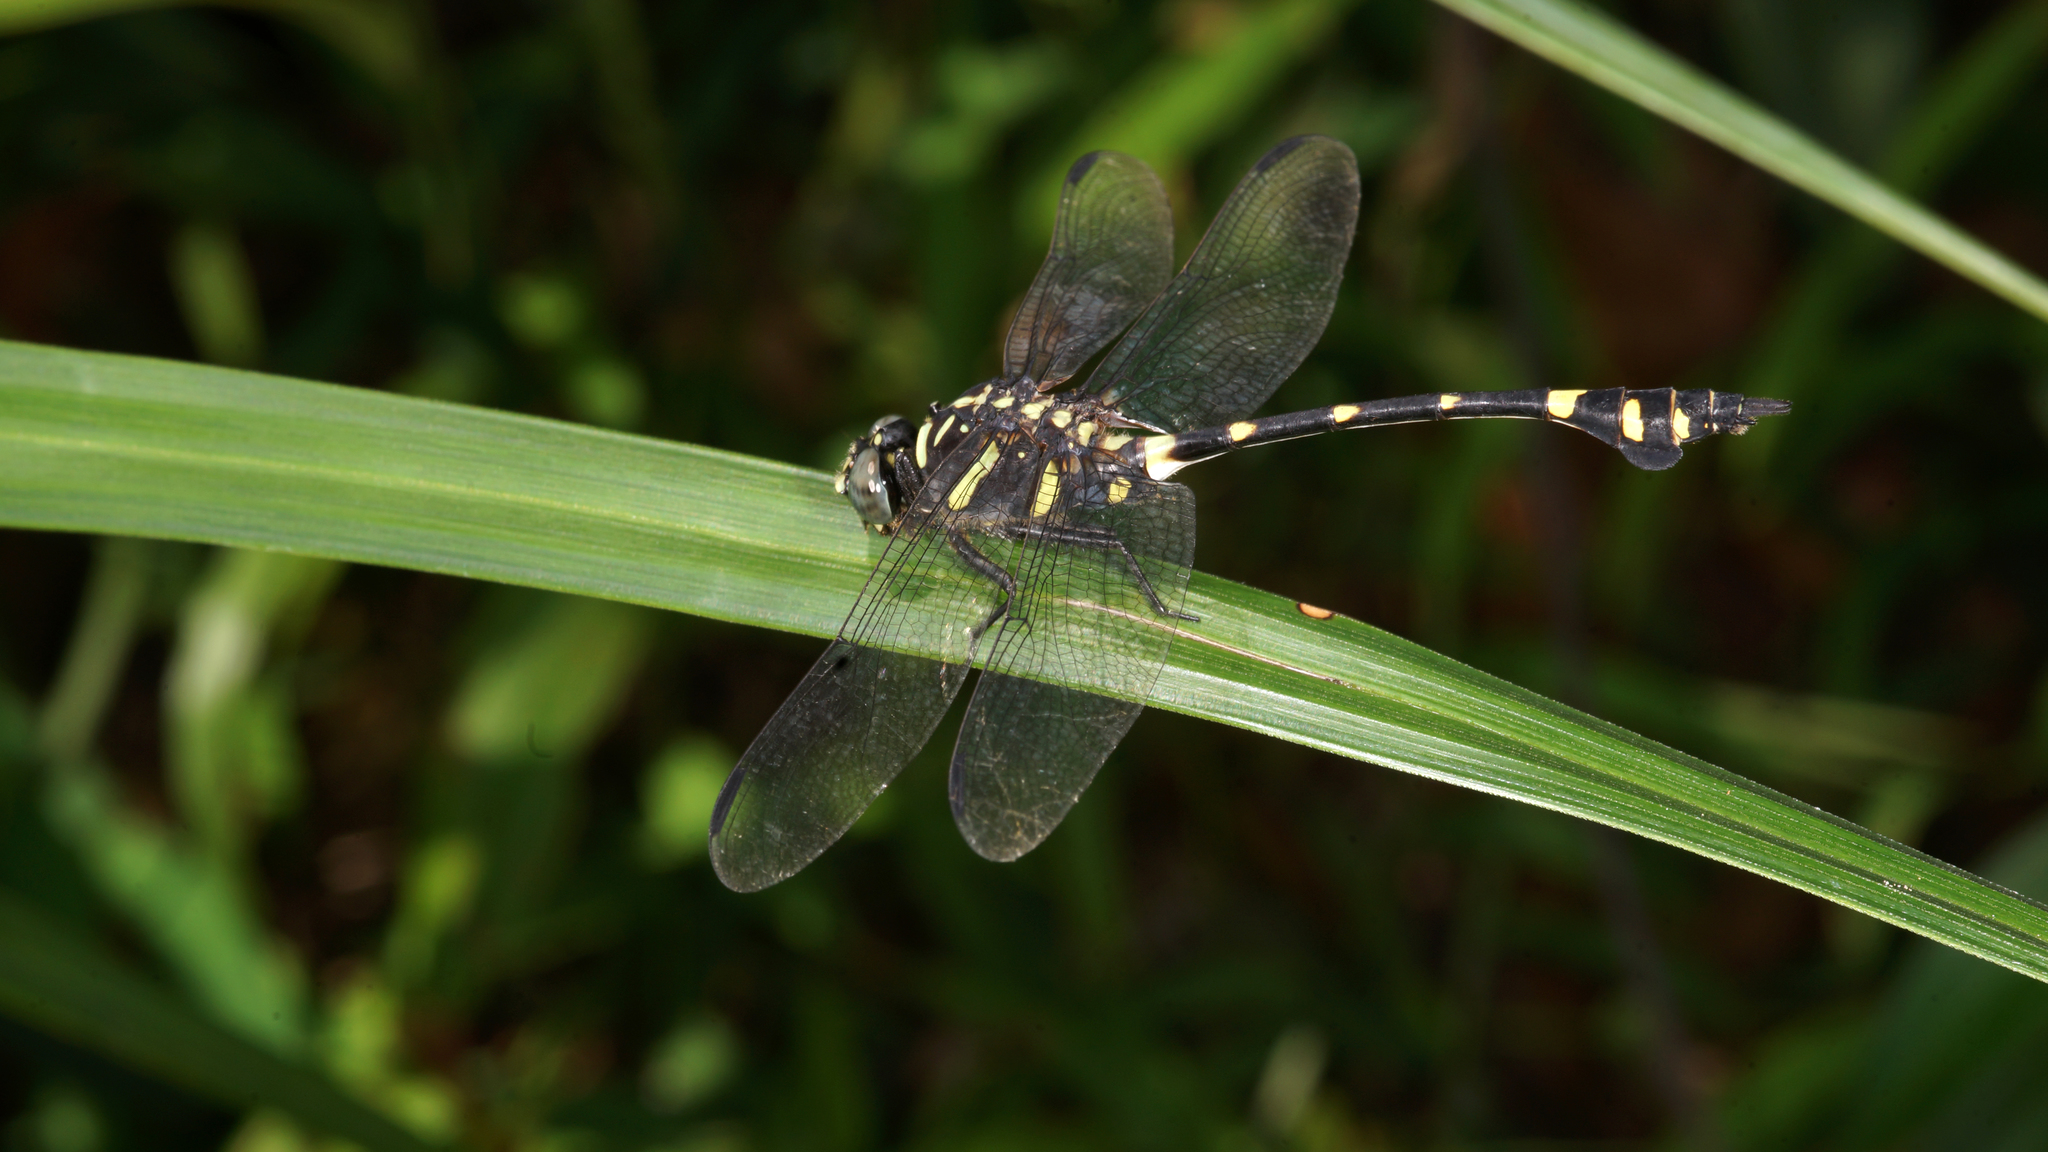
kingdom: Animalia
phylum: Arthropoda
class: Insecta
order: Odonata
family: Gomphidae
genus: Ictinogomphus
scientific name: Ictinogomphus decoratus
